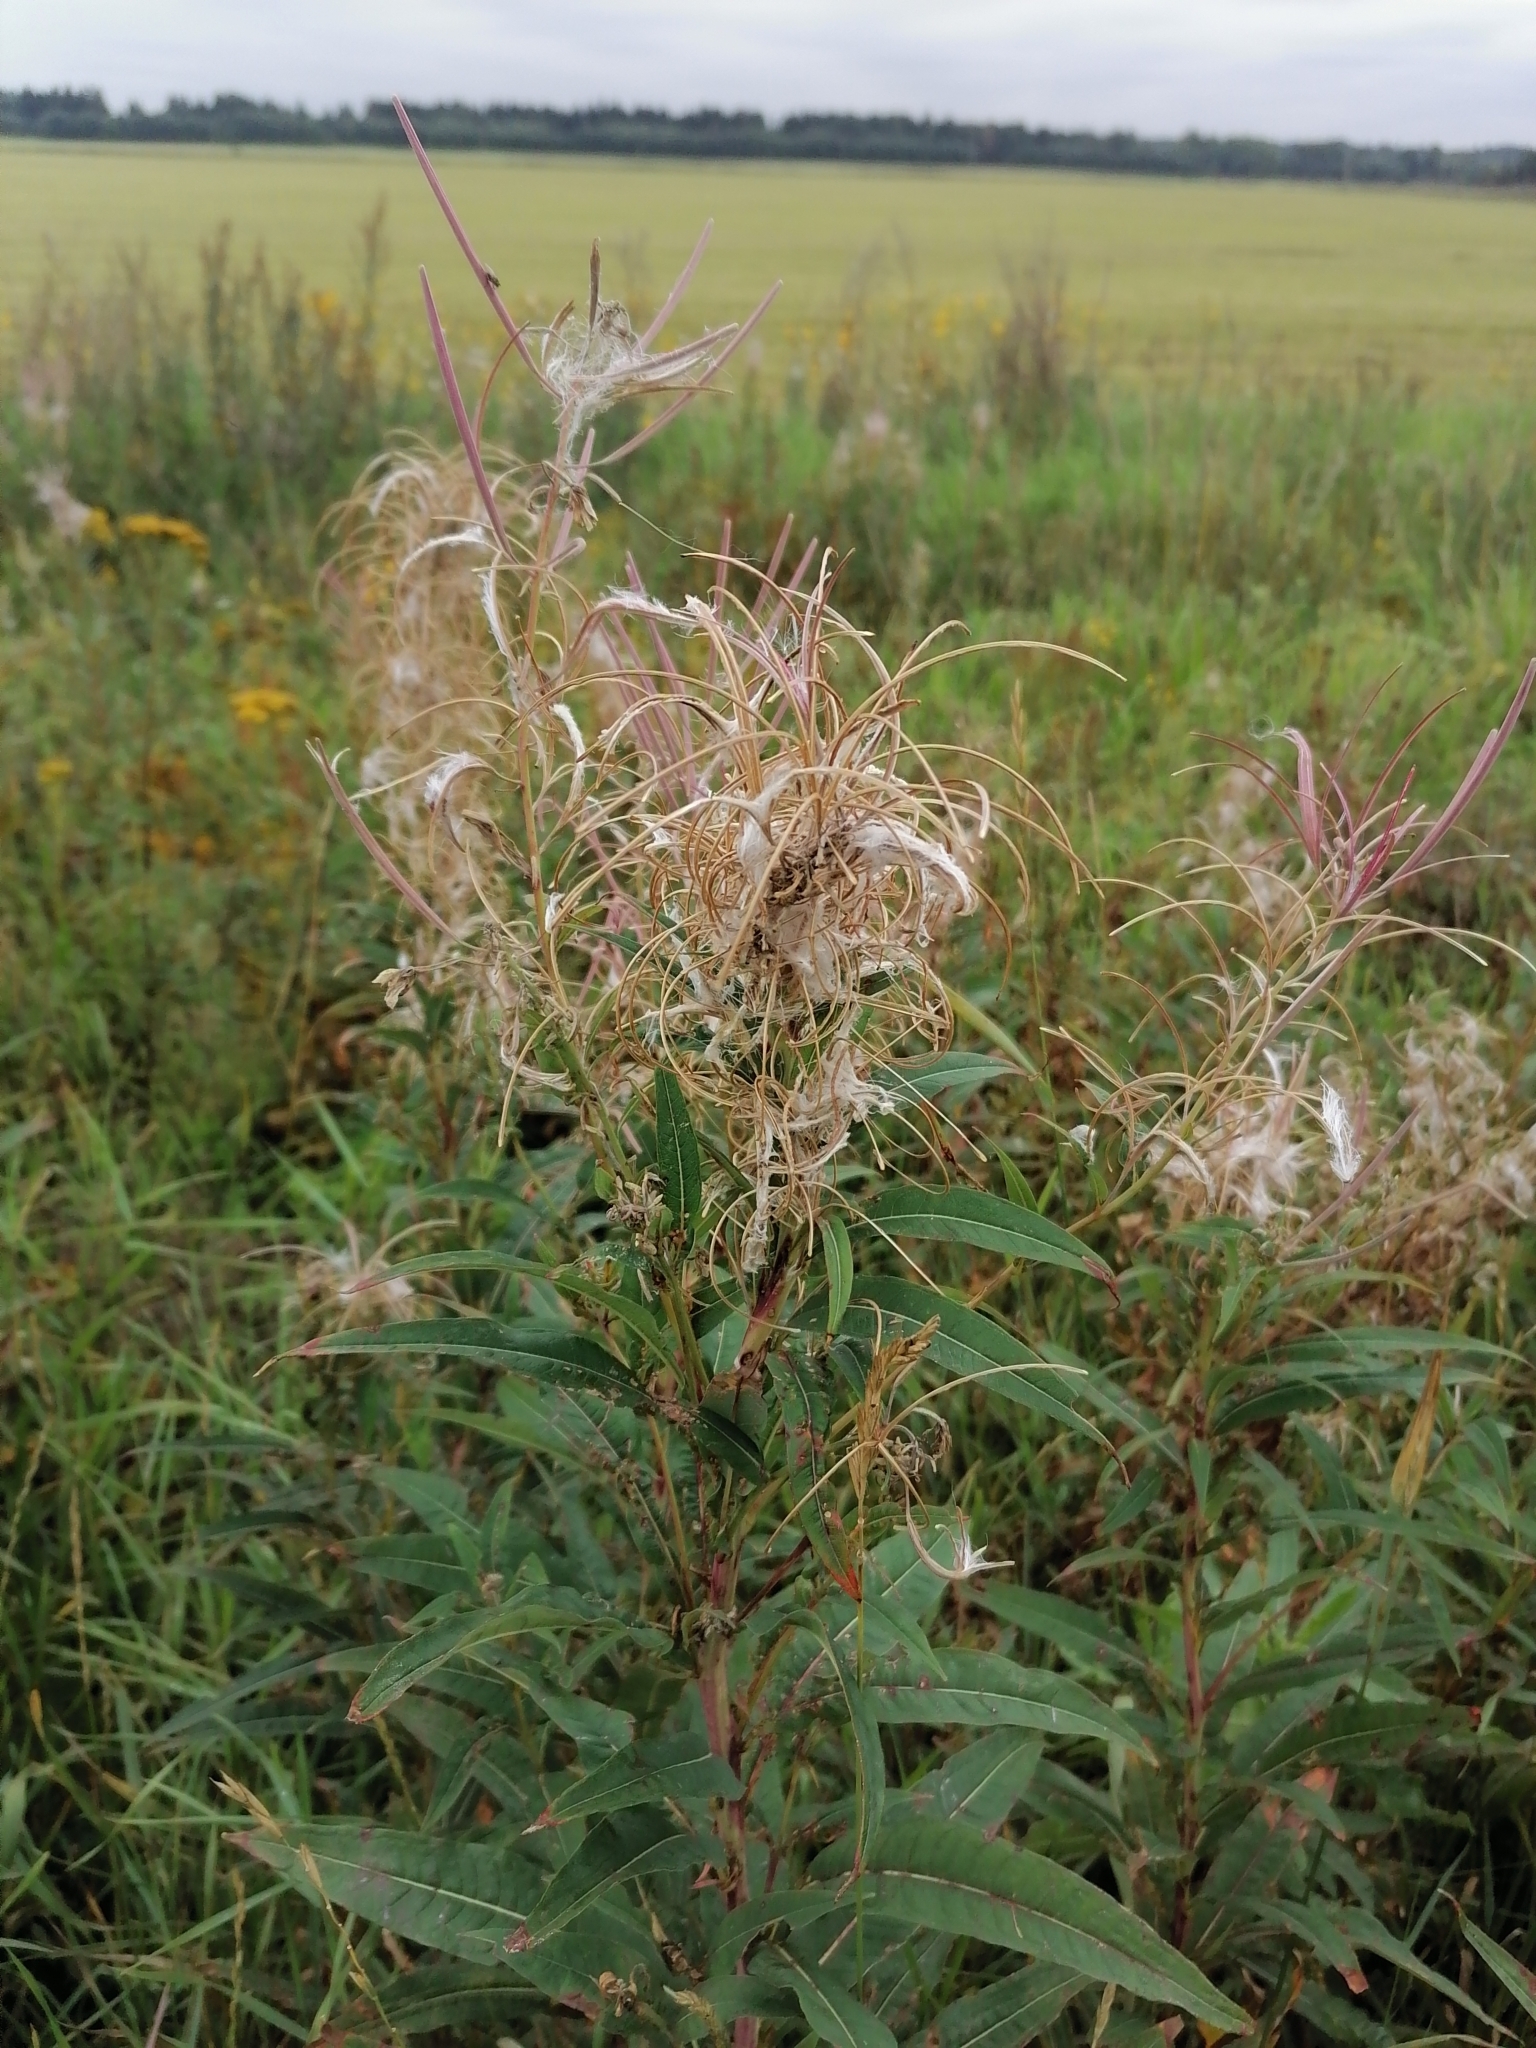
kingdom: Plantae
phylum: Tracheophyta
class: Magnoliopsida
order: Myrtales
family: Onagraceae
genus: Chamaenerion
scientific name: Chamaenerion angustifolium
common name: Fireweed
